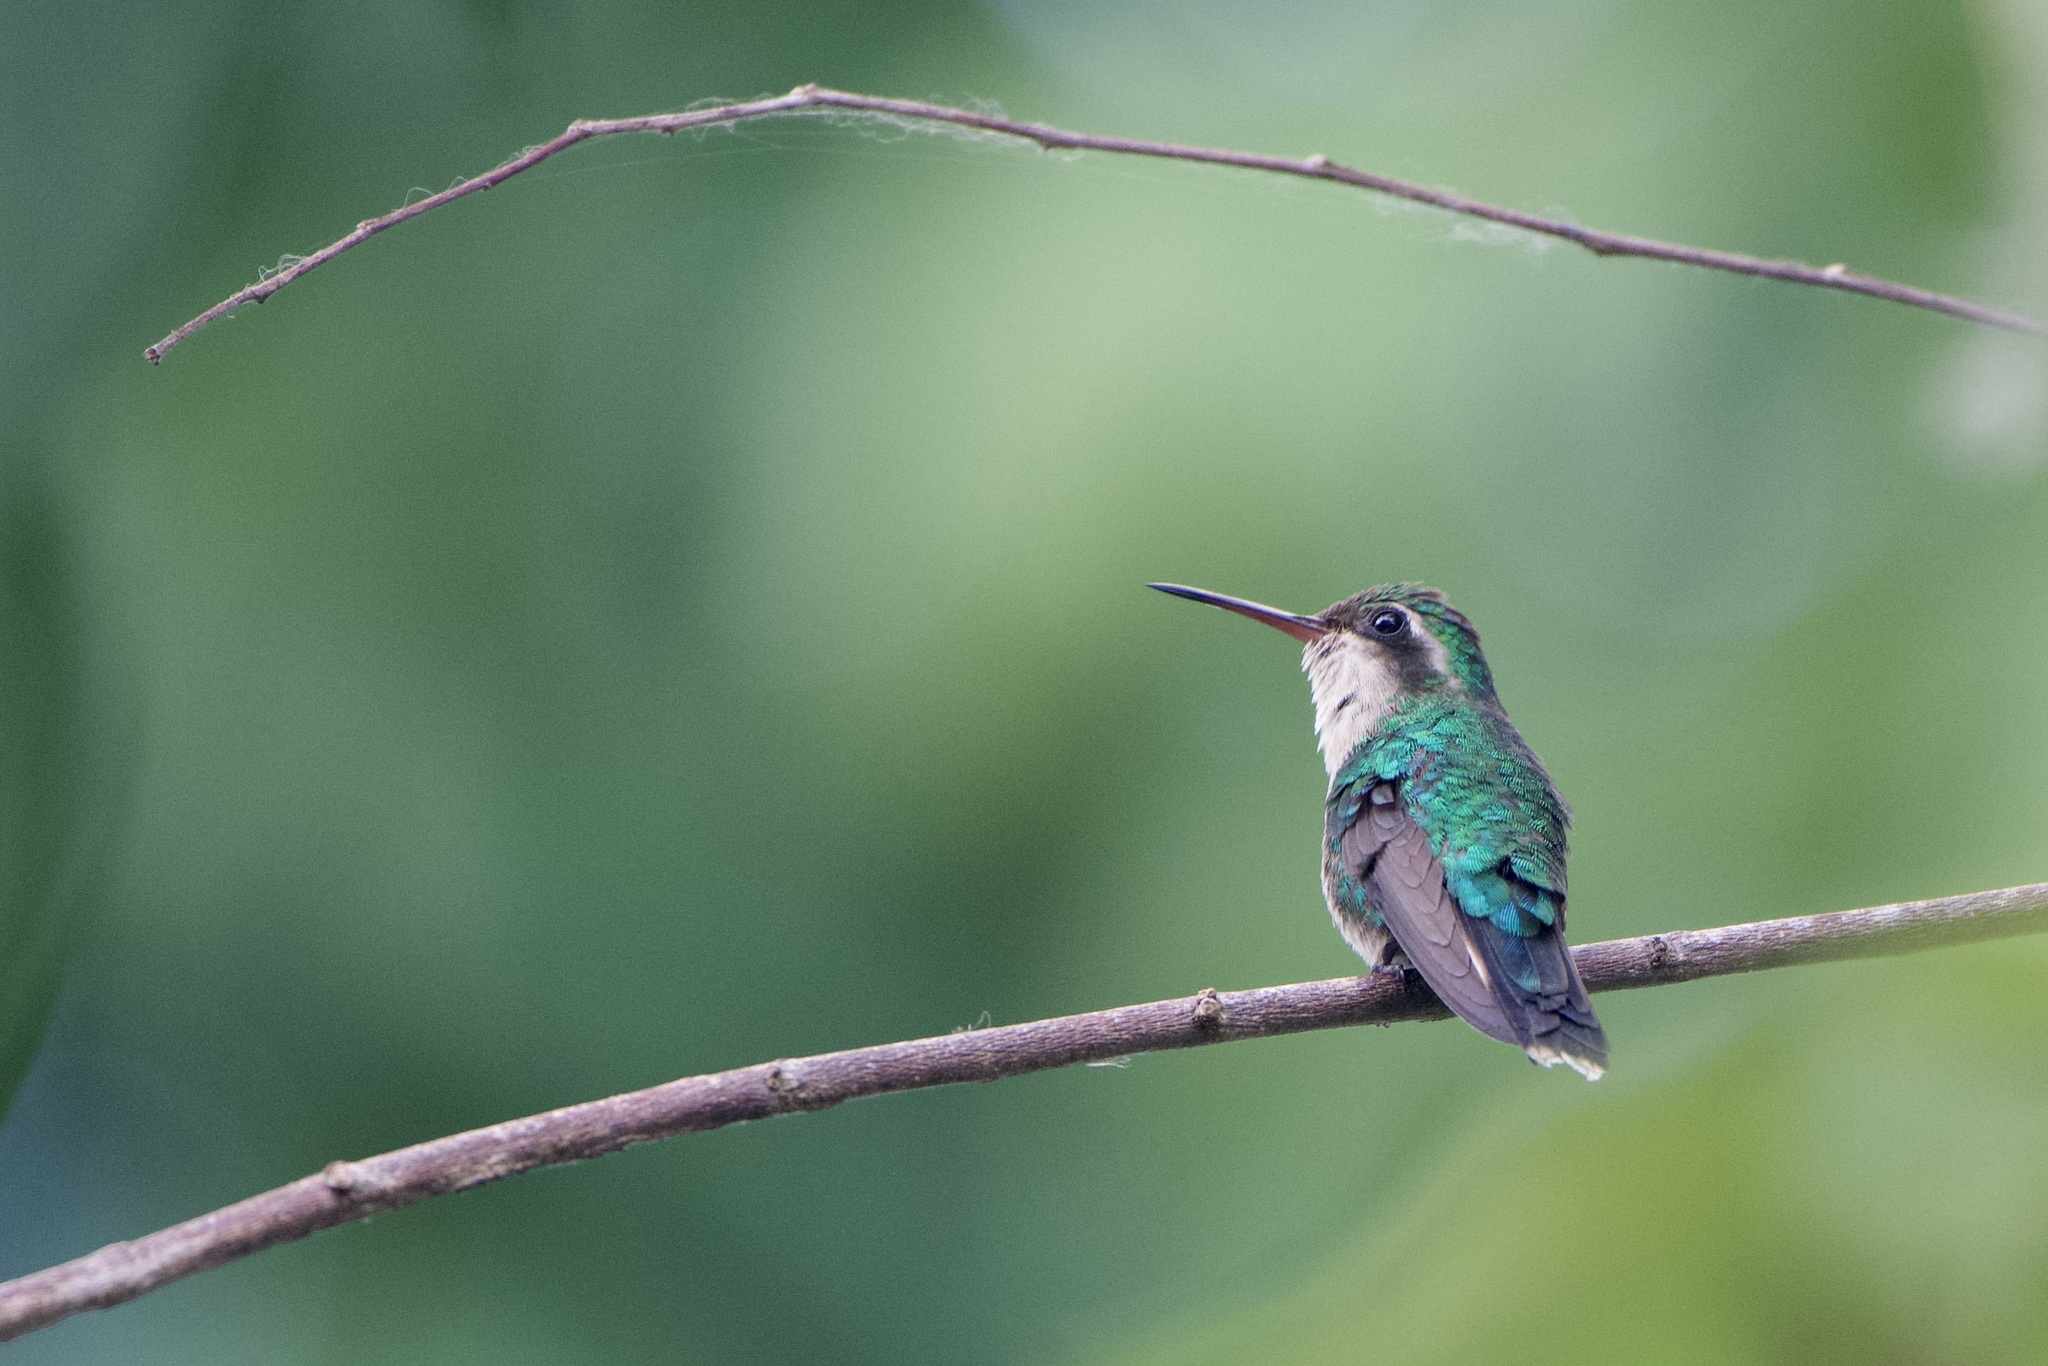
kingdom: Animalia
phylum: Chordata
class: Aves
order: Apodiformes
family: Trochilidae
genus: Cynanthus
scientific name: Cynanthus forficatus
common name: Cozumel emerald
